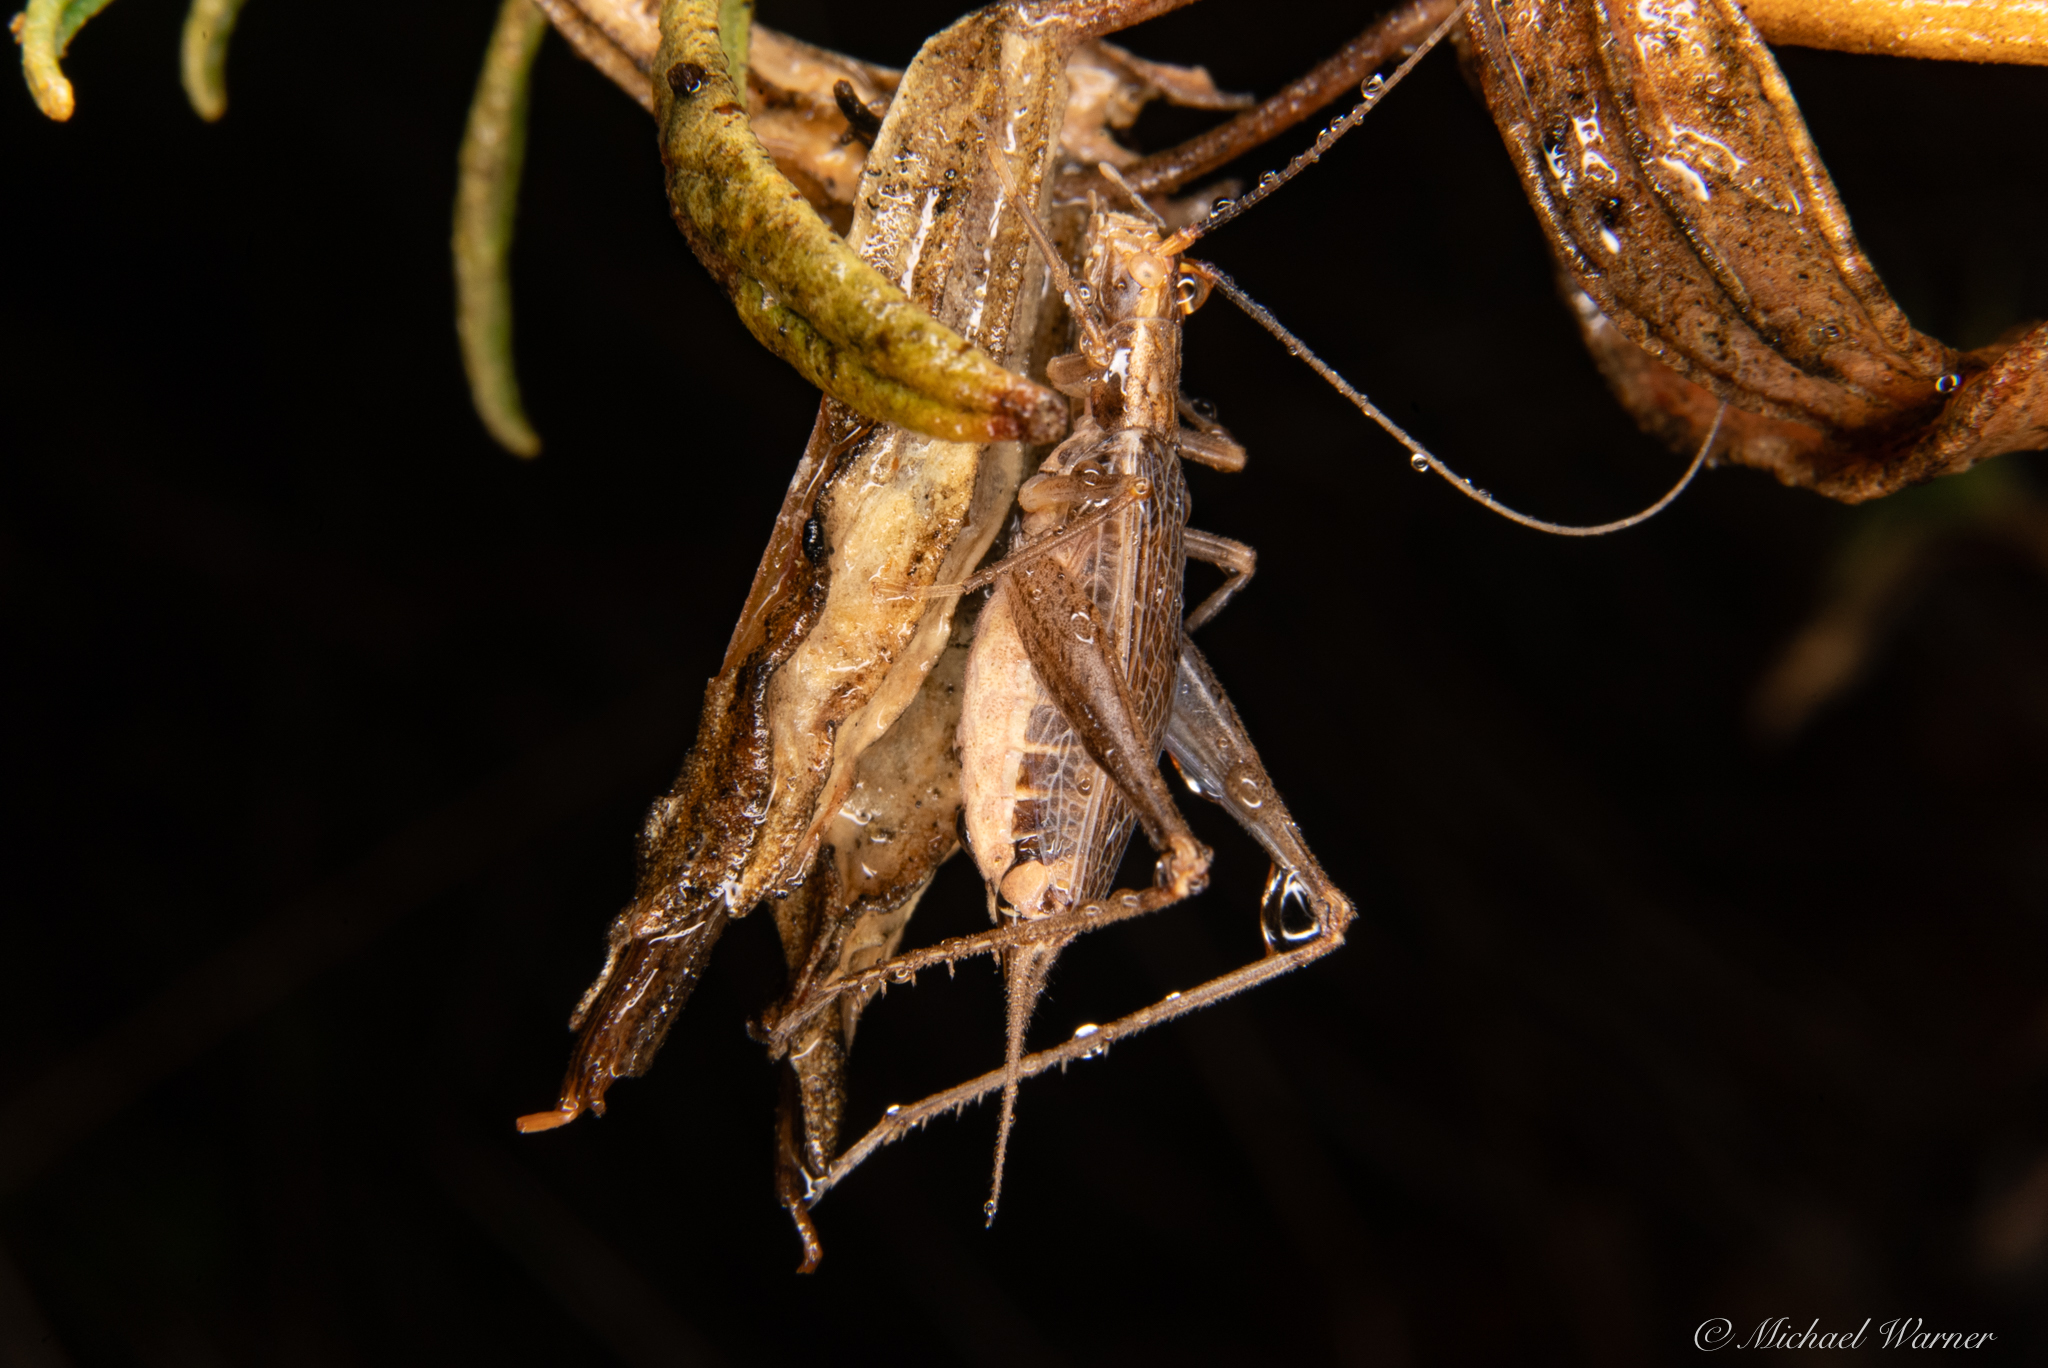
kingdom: Animalia
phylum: Arthropoda
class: Insecta
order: Orthoptera
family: Gryllidae
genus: Oecanthus
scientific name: Oecanthus californicus
